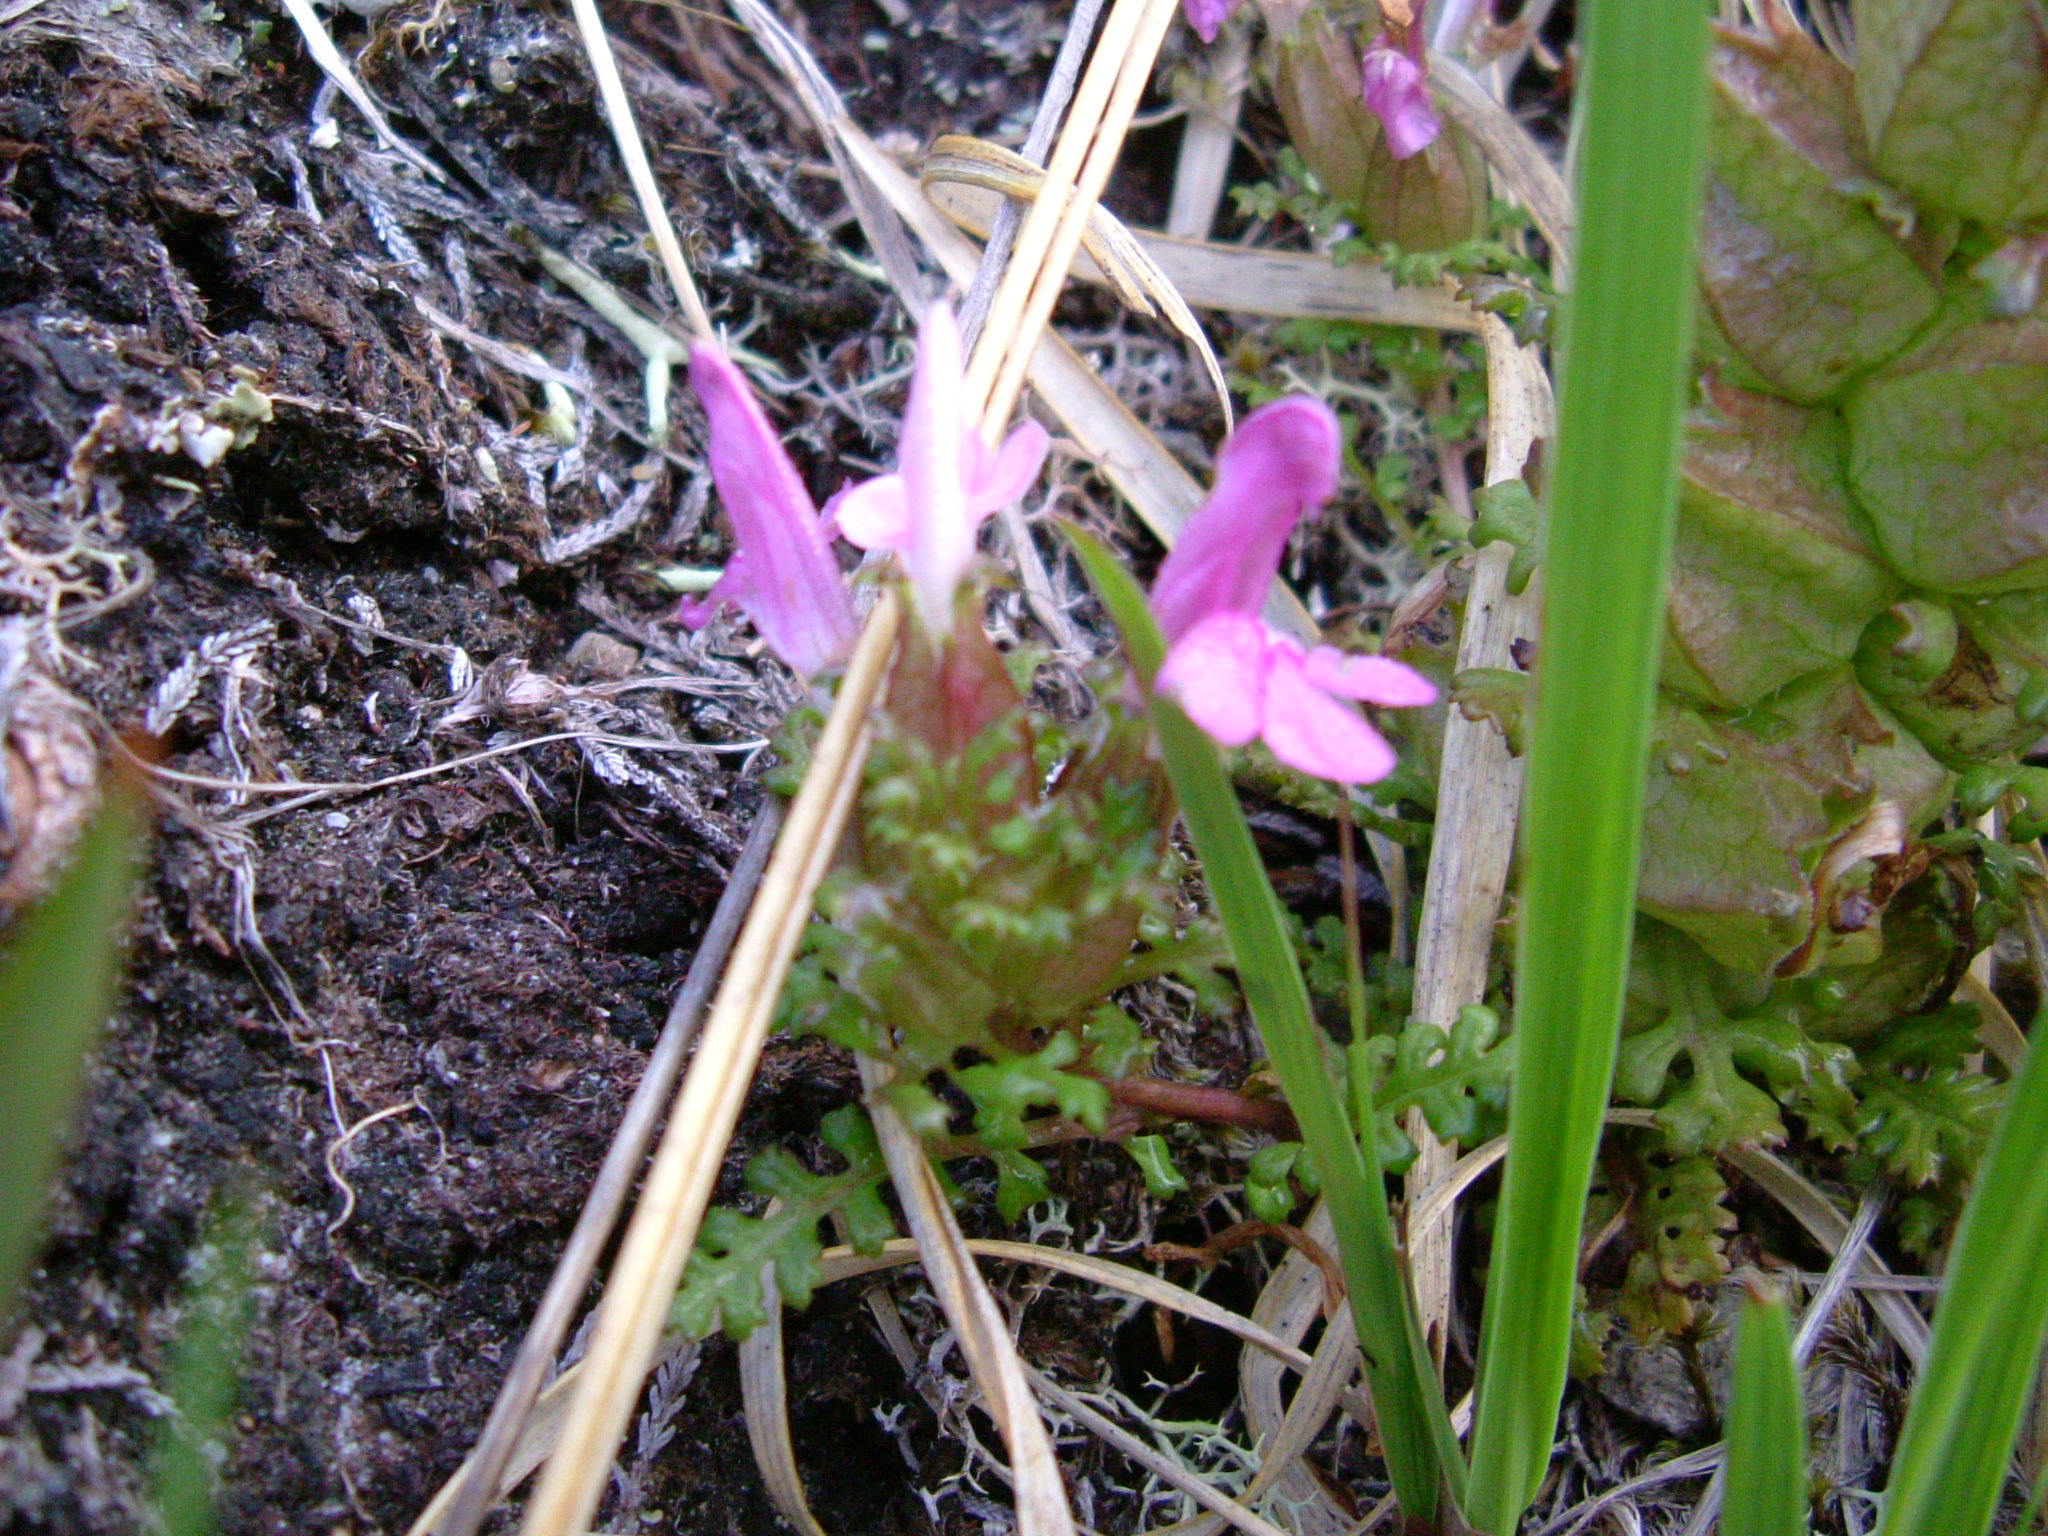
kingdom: Plantae
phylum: Tracheophyta
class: Magnoliopsida
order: Lamiales
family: Orobanchaceae
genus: Pedicularis
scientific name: Pedicularis sylvatica
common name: Lousewort
